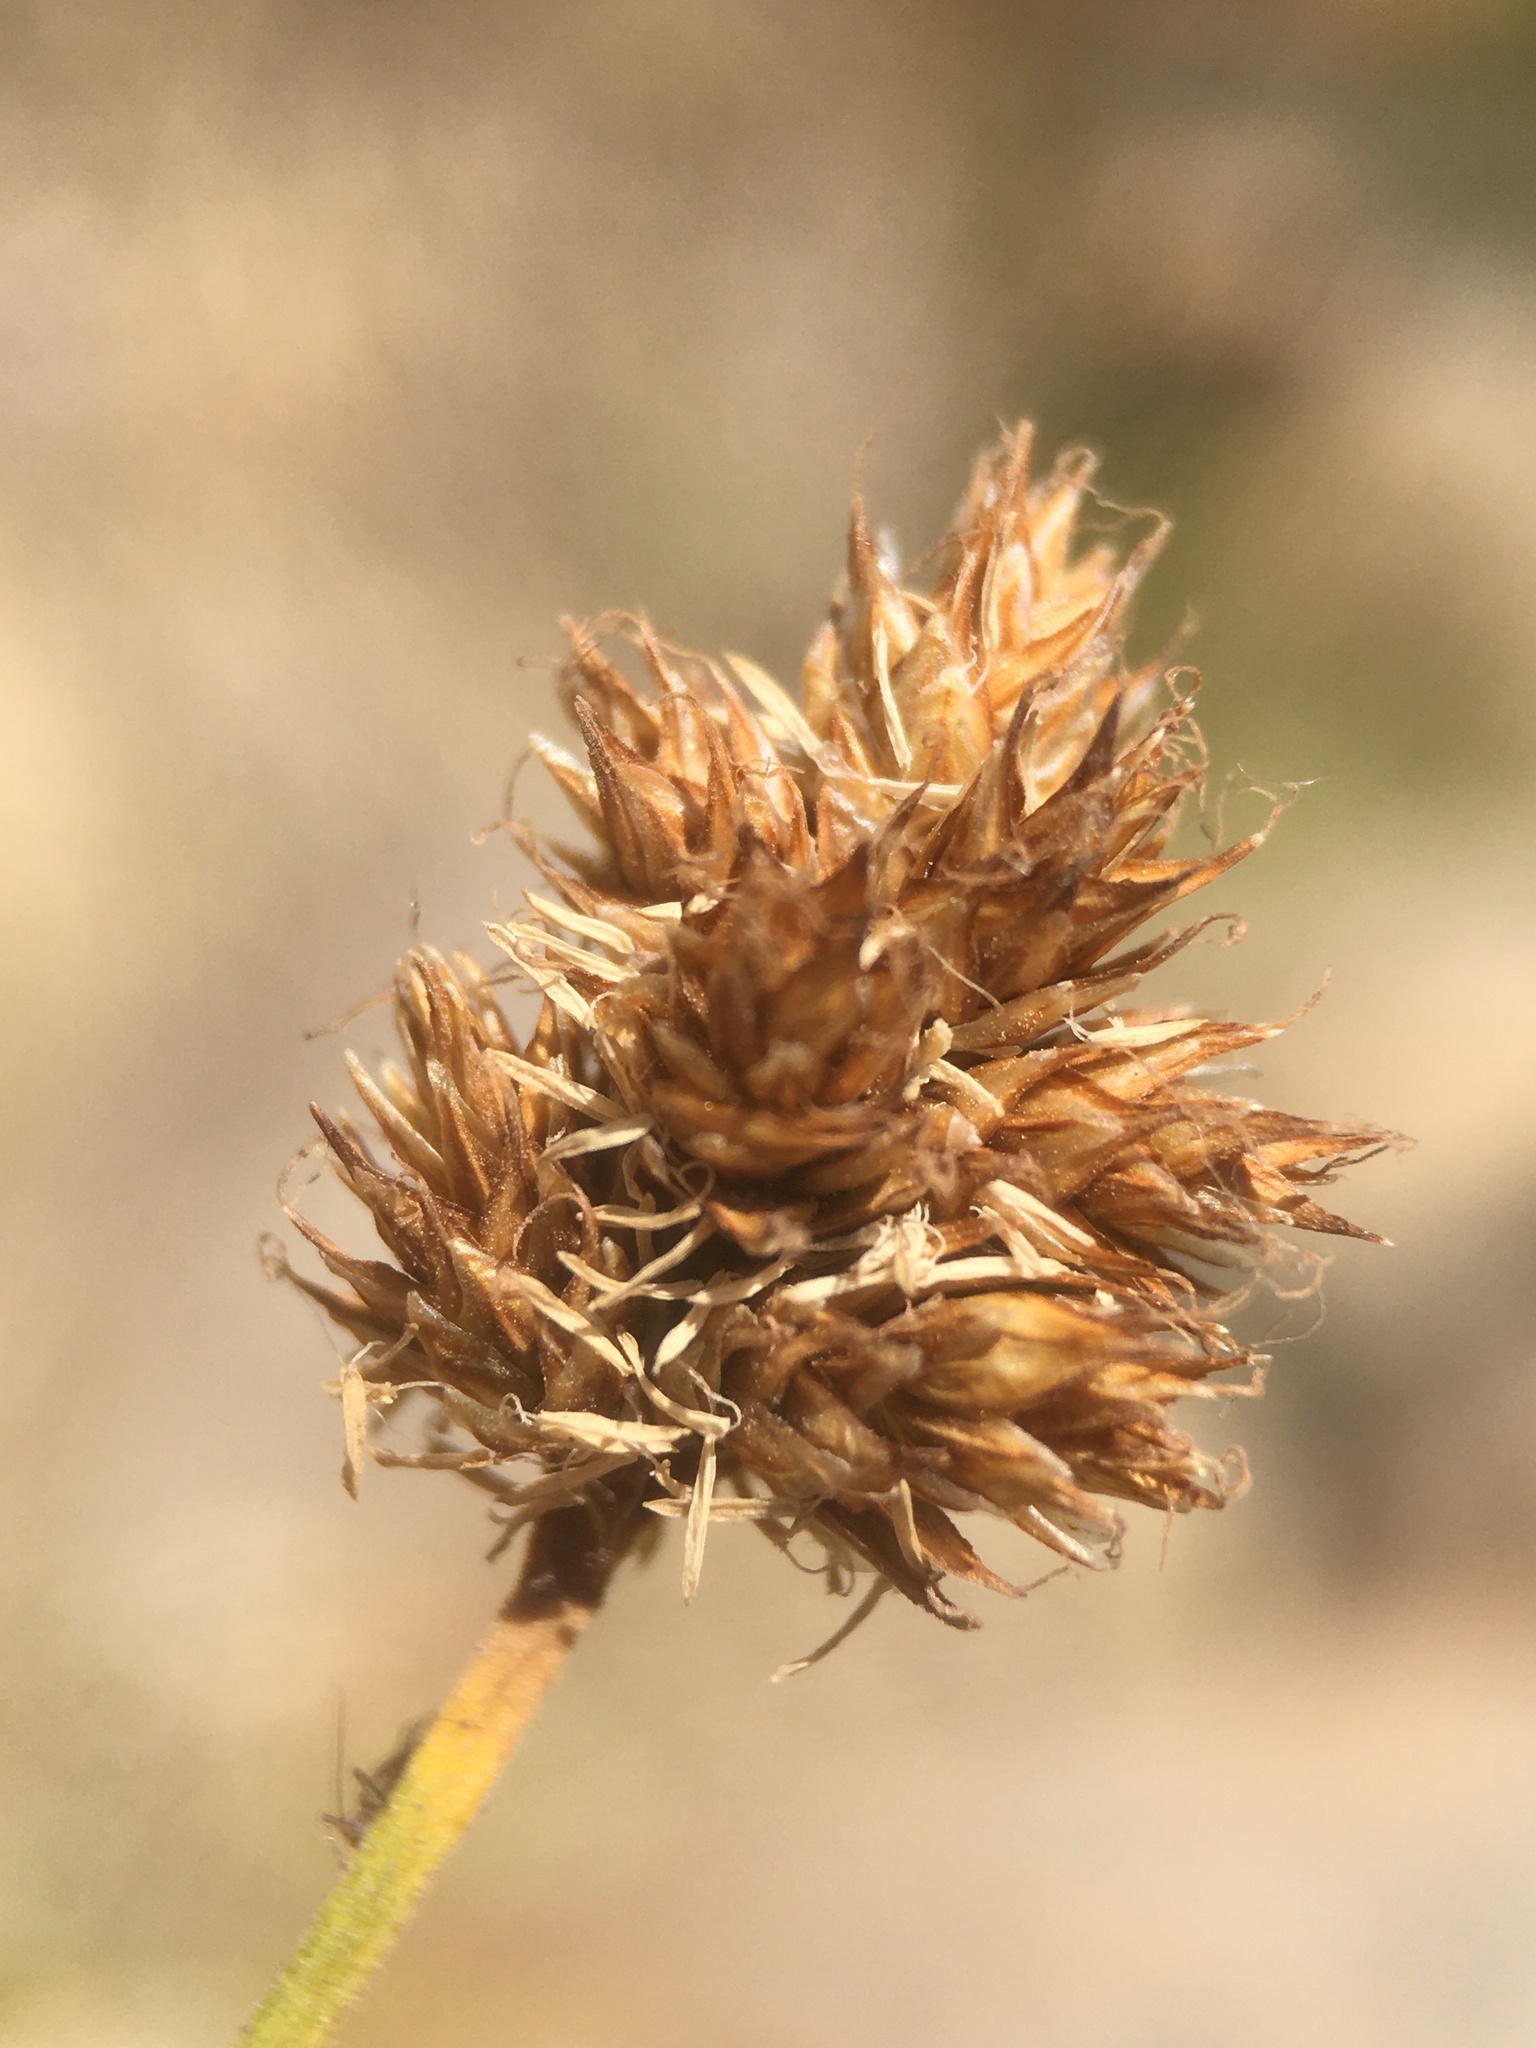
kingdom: Plantae
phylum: Tracheophyta
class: Liliopsida
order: Poales
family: Cyperaceae
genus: Carex
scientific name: Carex macloviana
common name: Falkland island sedge
